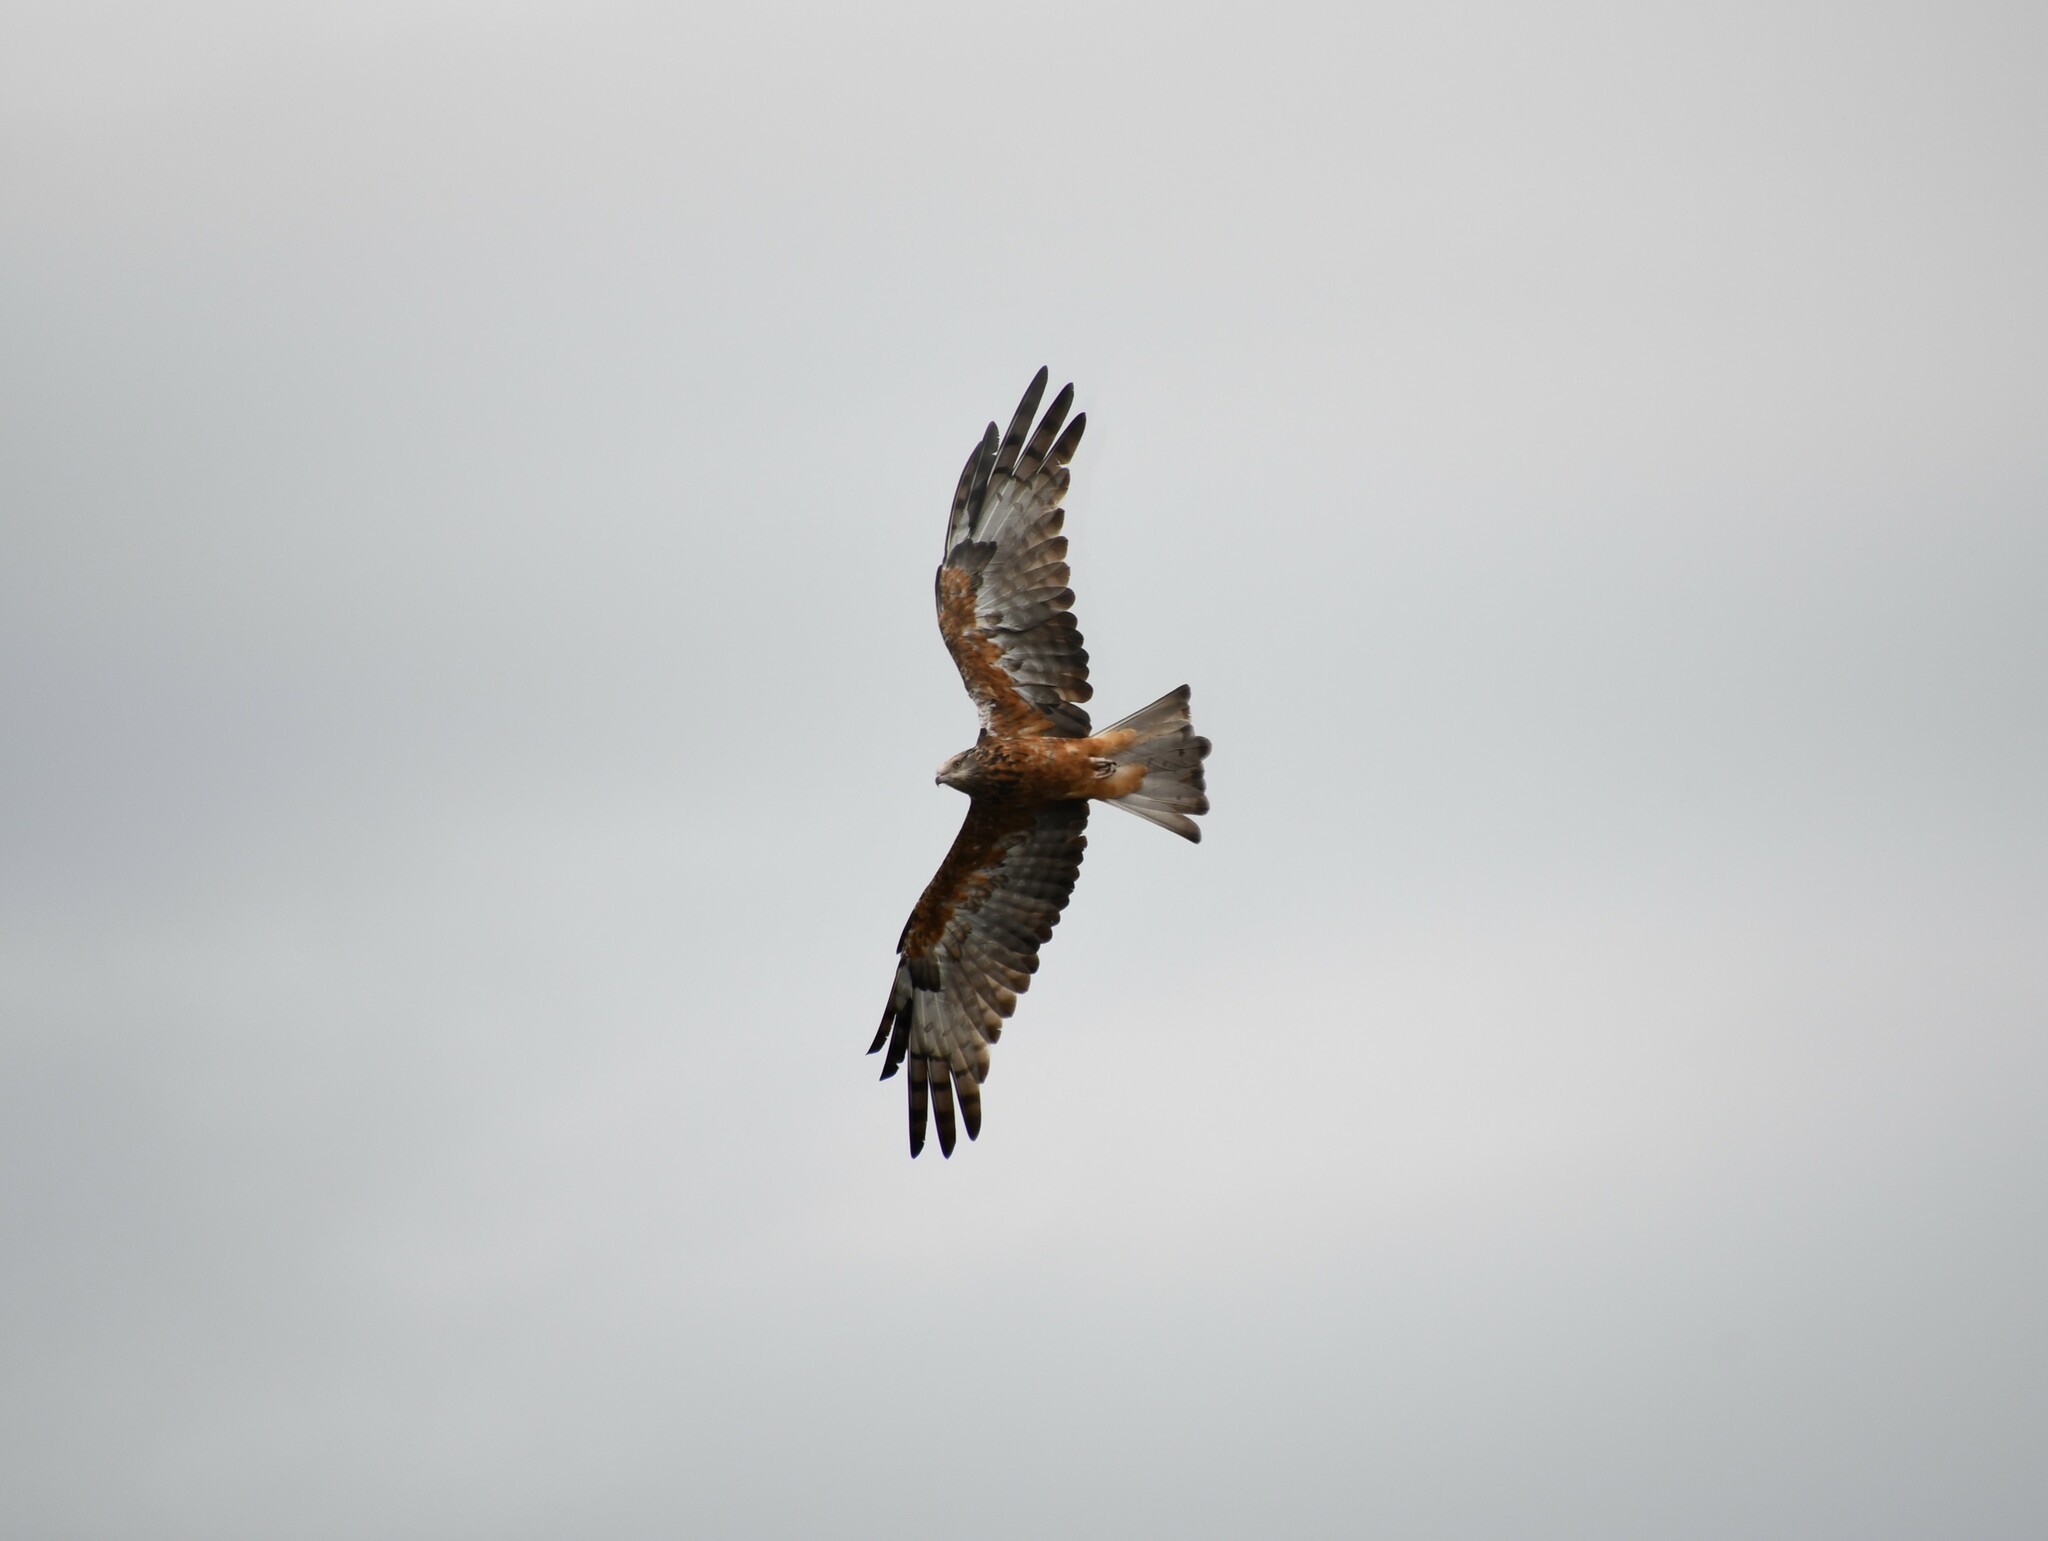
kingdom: Animalia
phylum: Chordata
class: Aves
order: Accipitriformes
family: Accipitridae
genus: Lophoictinia
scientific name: Lophoictinia isura
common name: Square-tailed kite
